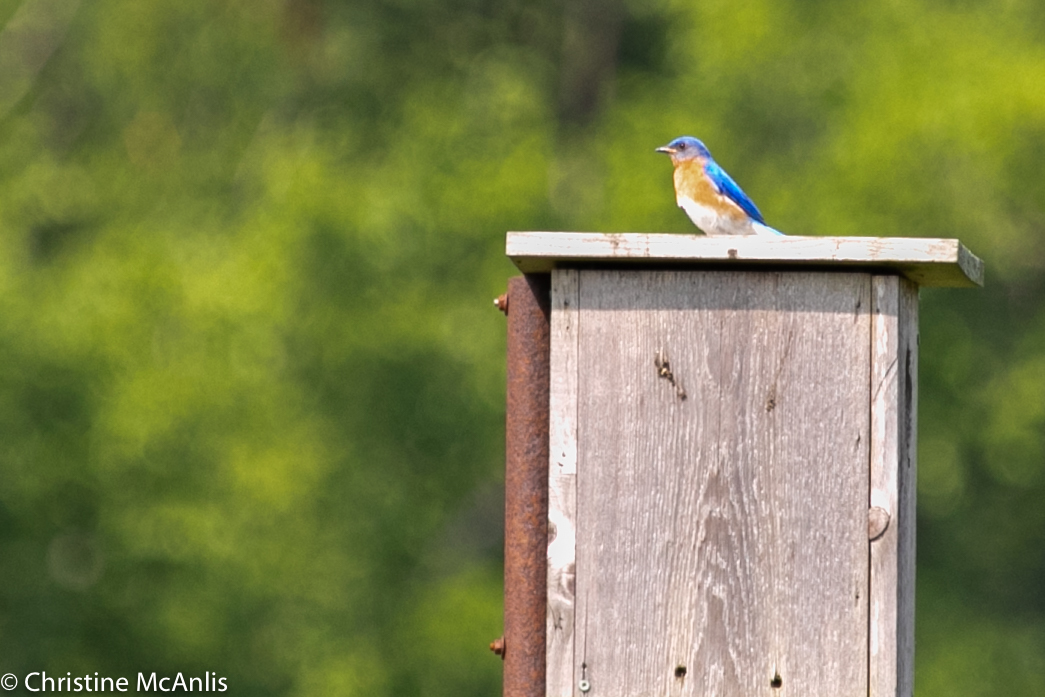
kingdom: Animalia
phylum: Chordata
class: Aves
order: Passeriformes
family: Turdidae
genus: Sialia
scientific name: Sialia sialis
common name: Eastern bluebird
